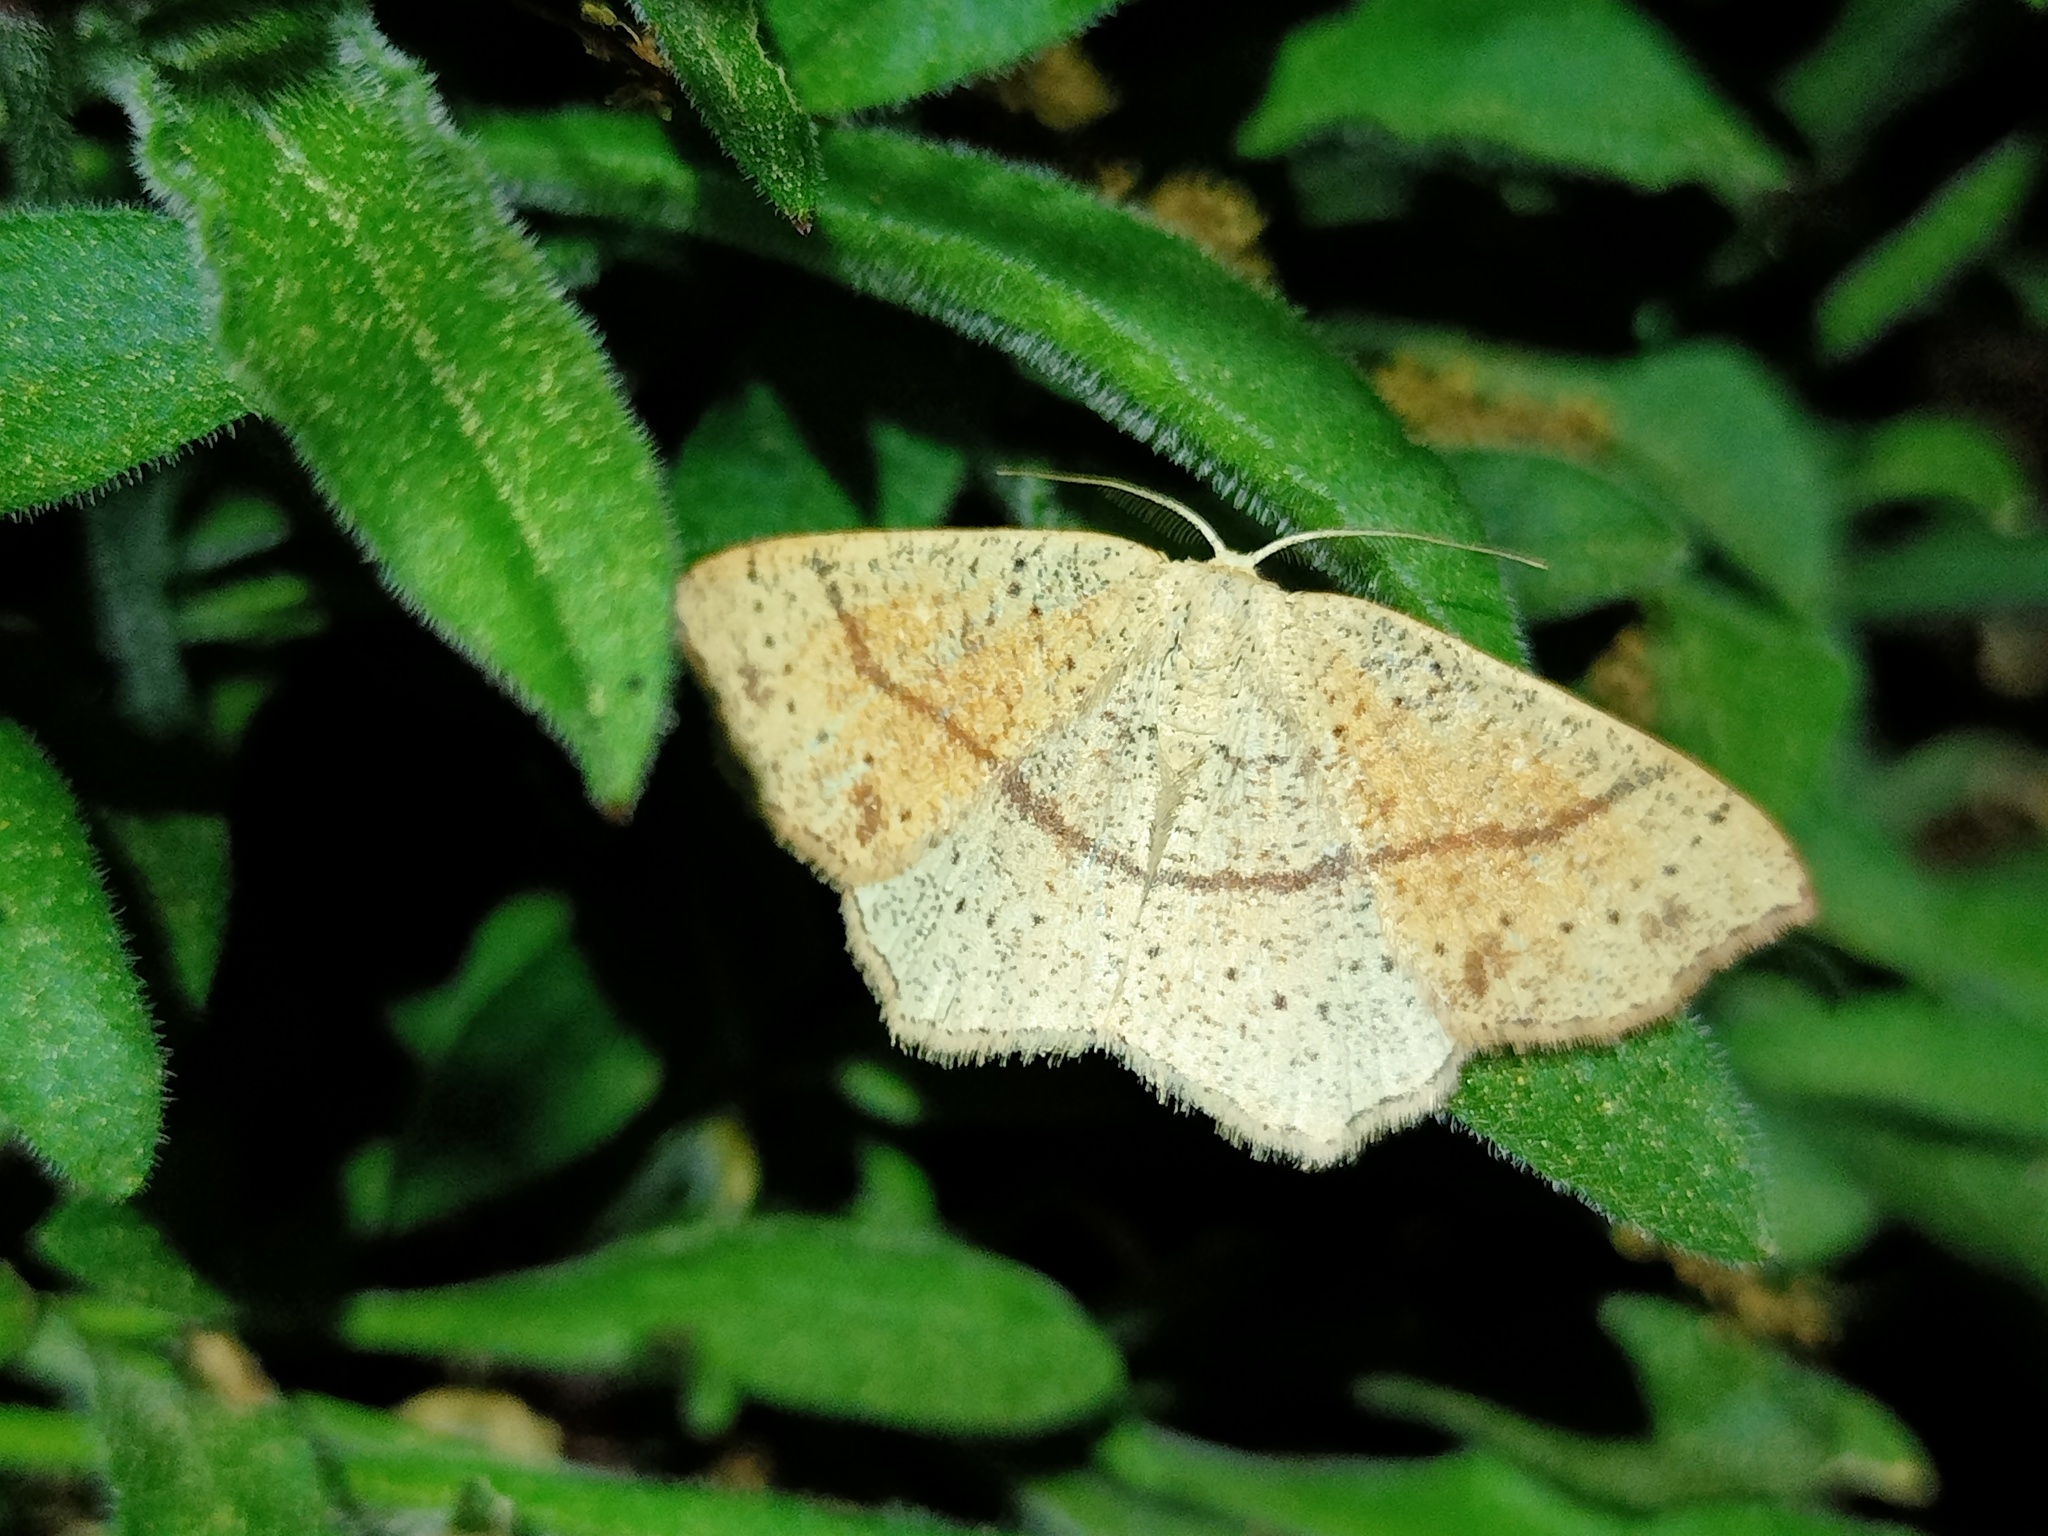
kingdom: Animalia
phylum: Arthropoda
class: Insecta
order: Lepidoptera
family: Geometridae
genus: Cyclophora
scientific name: Cyclophora punctaria
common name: Maiden's blush
